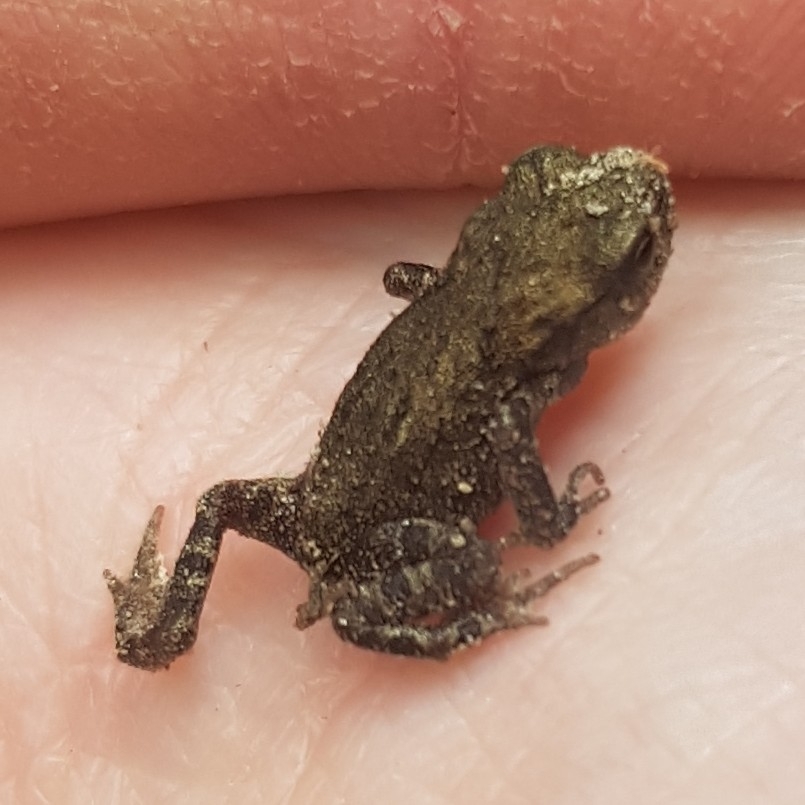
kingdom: Animalia
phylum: Chordata
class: Amphibia
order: Anura
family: Bufonidae
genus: Bufo
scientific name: Bufo bufo
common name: Common toad
